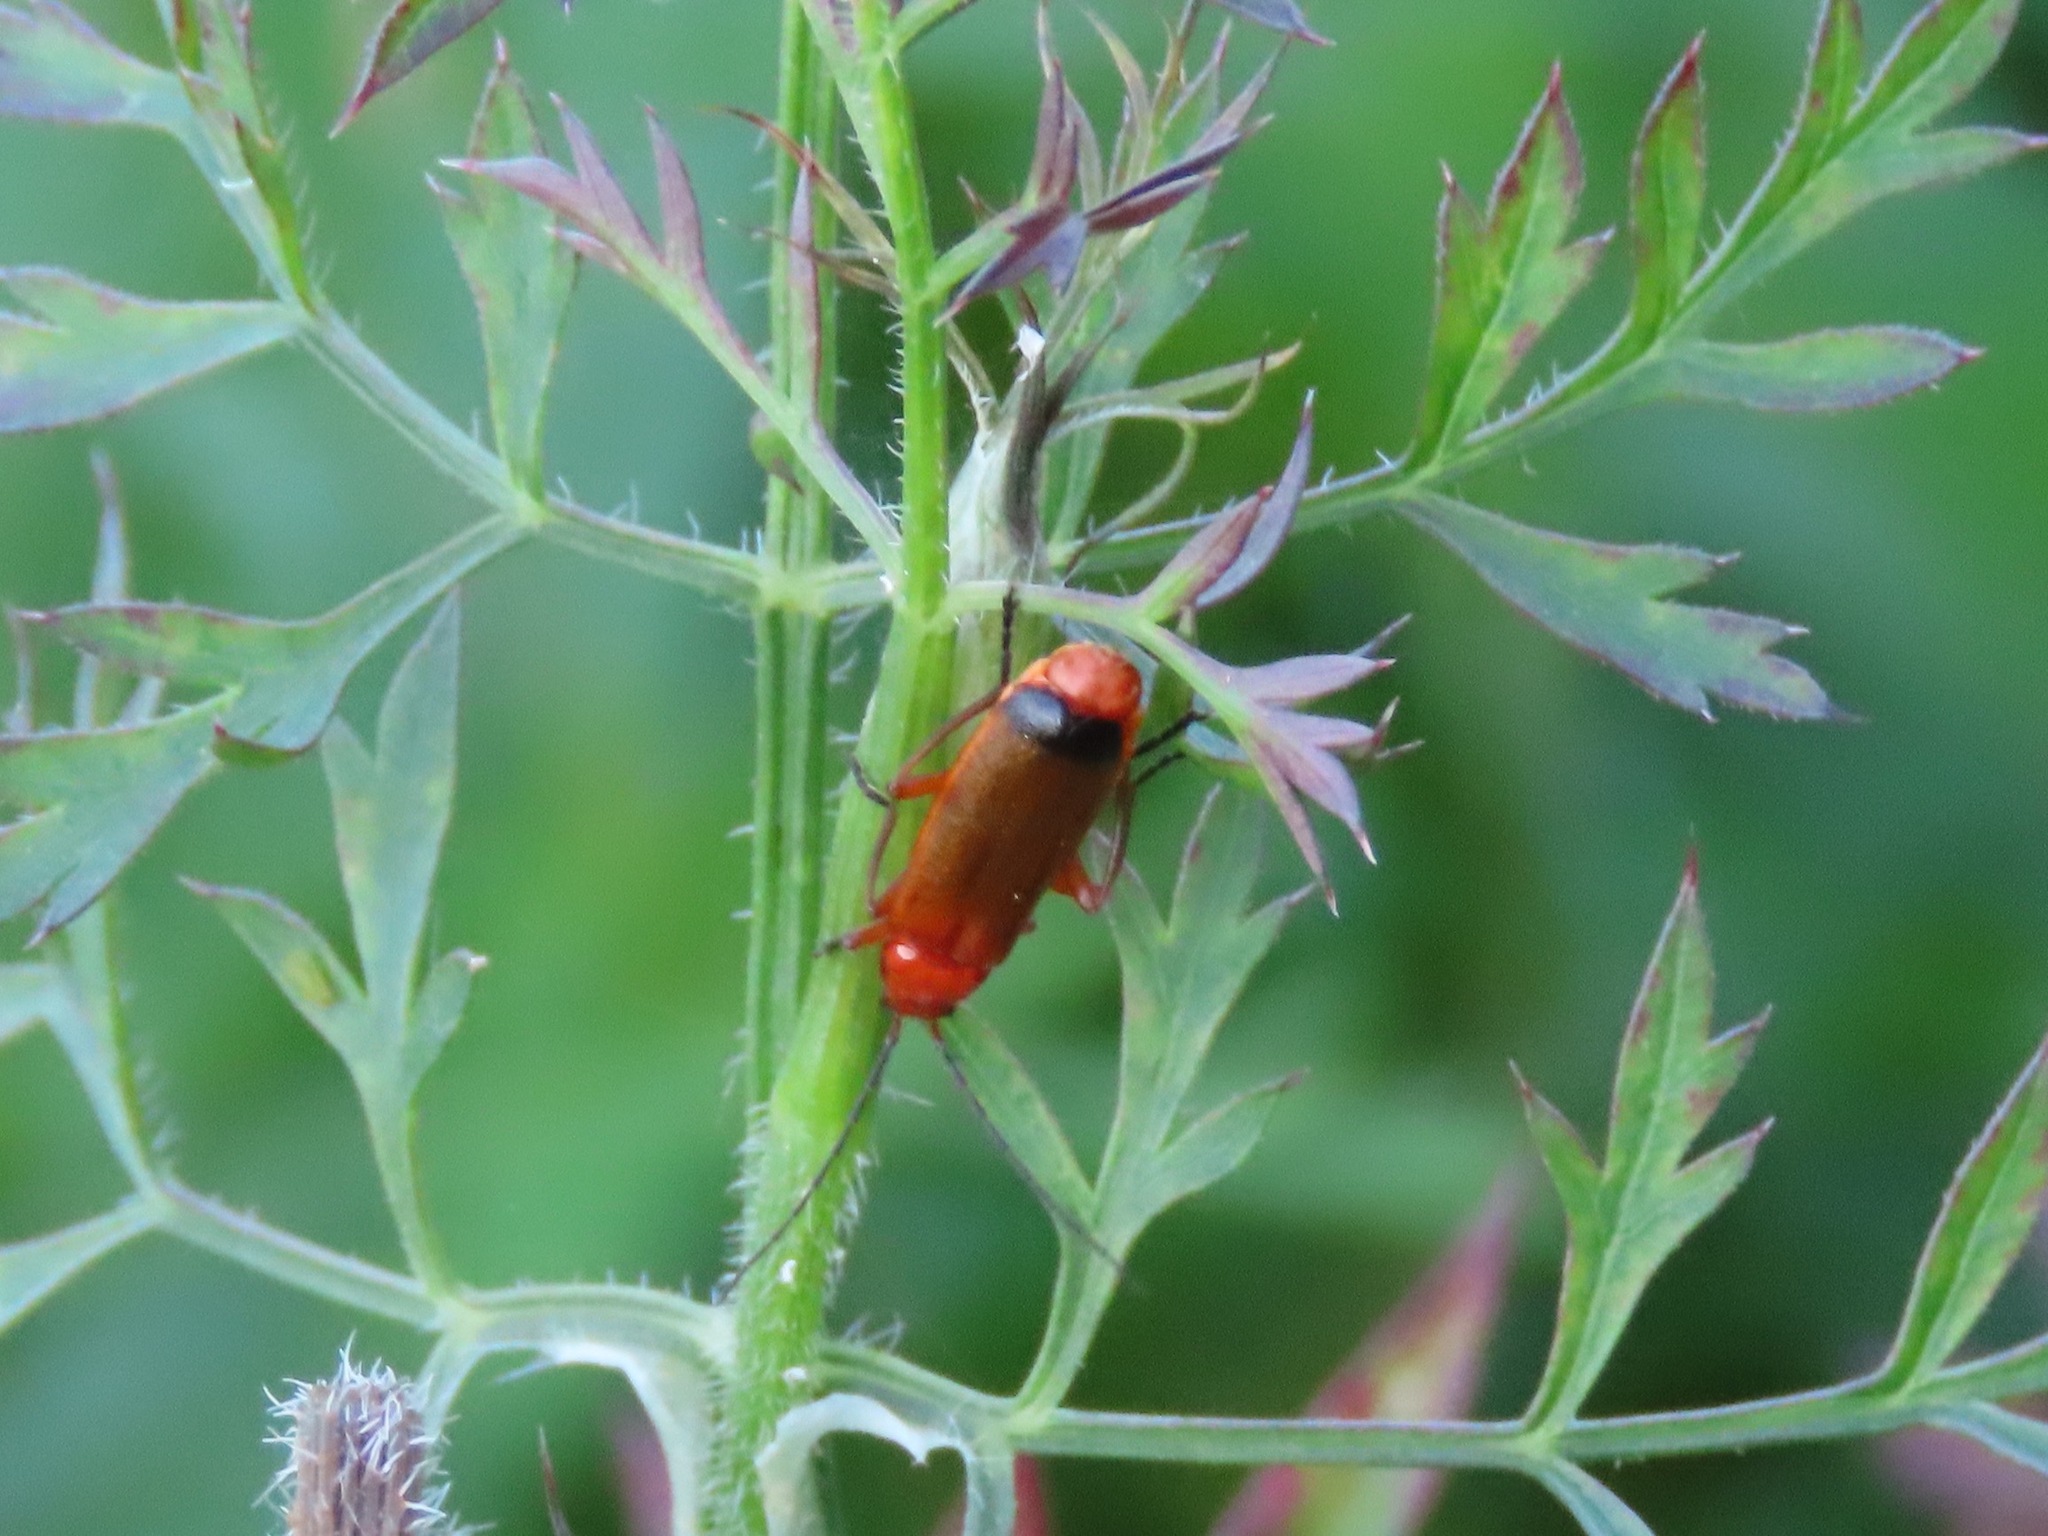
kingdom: Animalia
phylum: Arthropoda
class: Insecta
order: Coleoptera
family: Cantharidae
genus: Rhagonycha
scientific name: Rhagonycha fulva
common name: Common red soldier beetle
